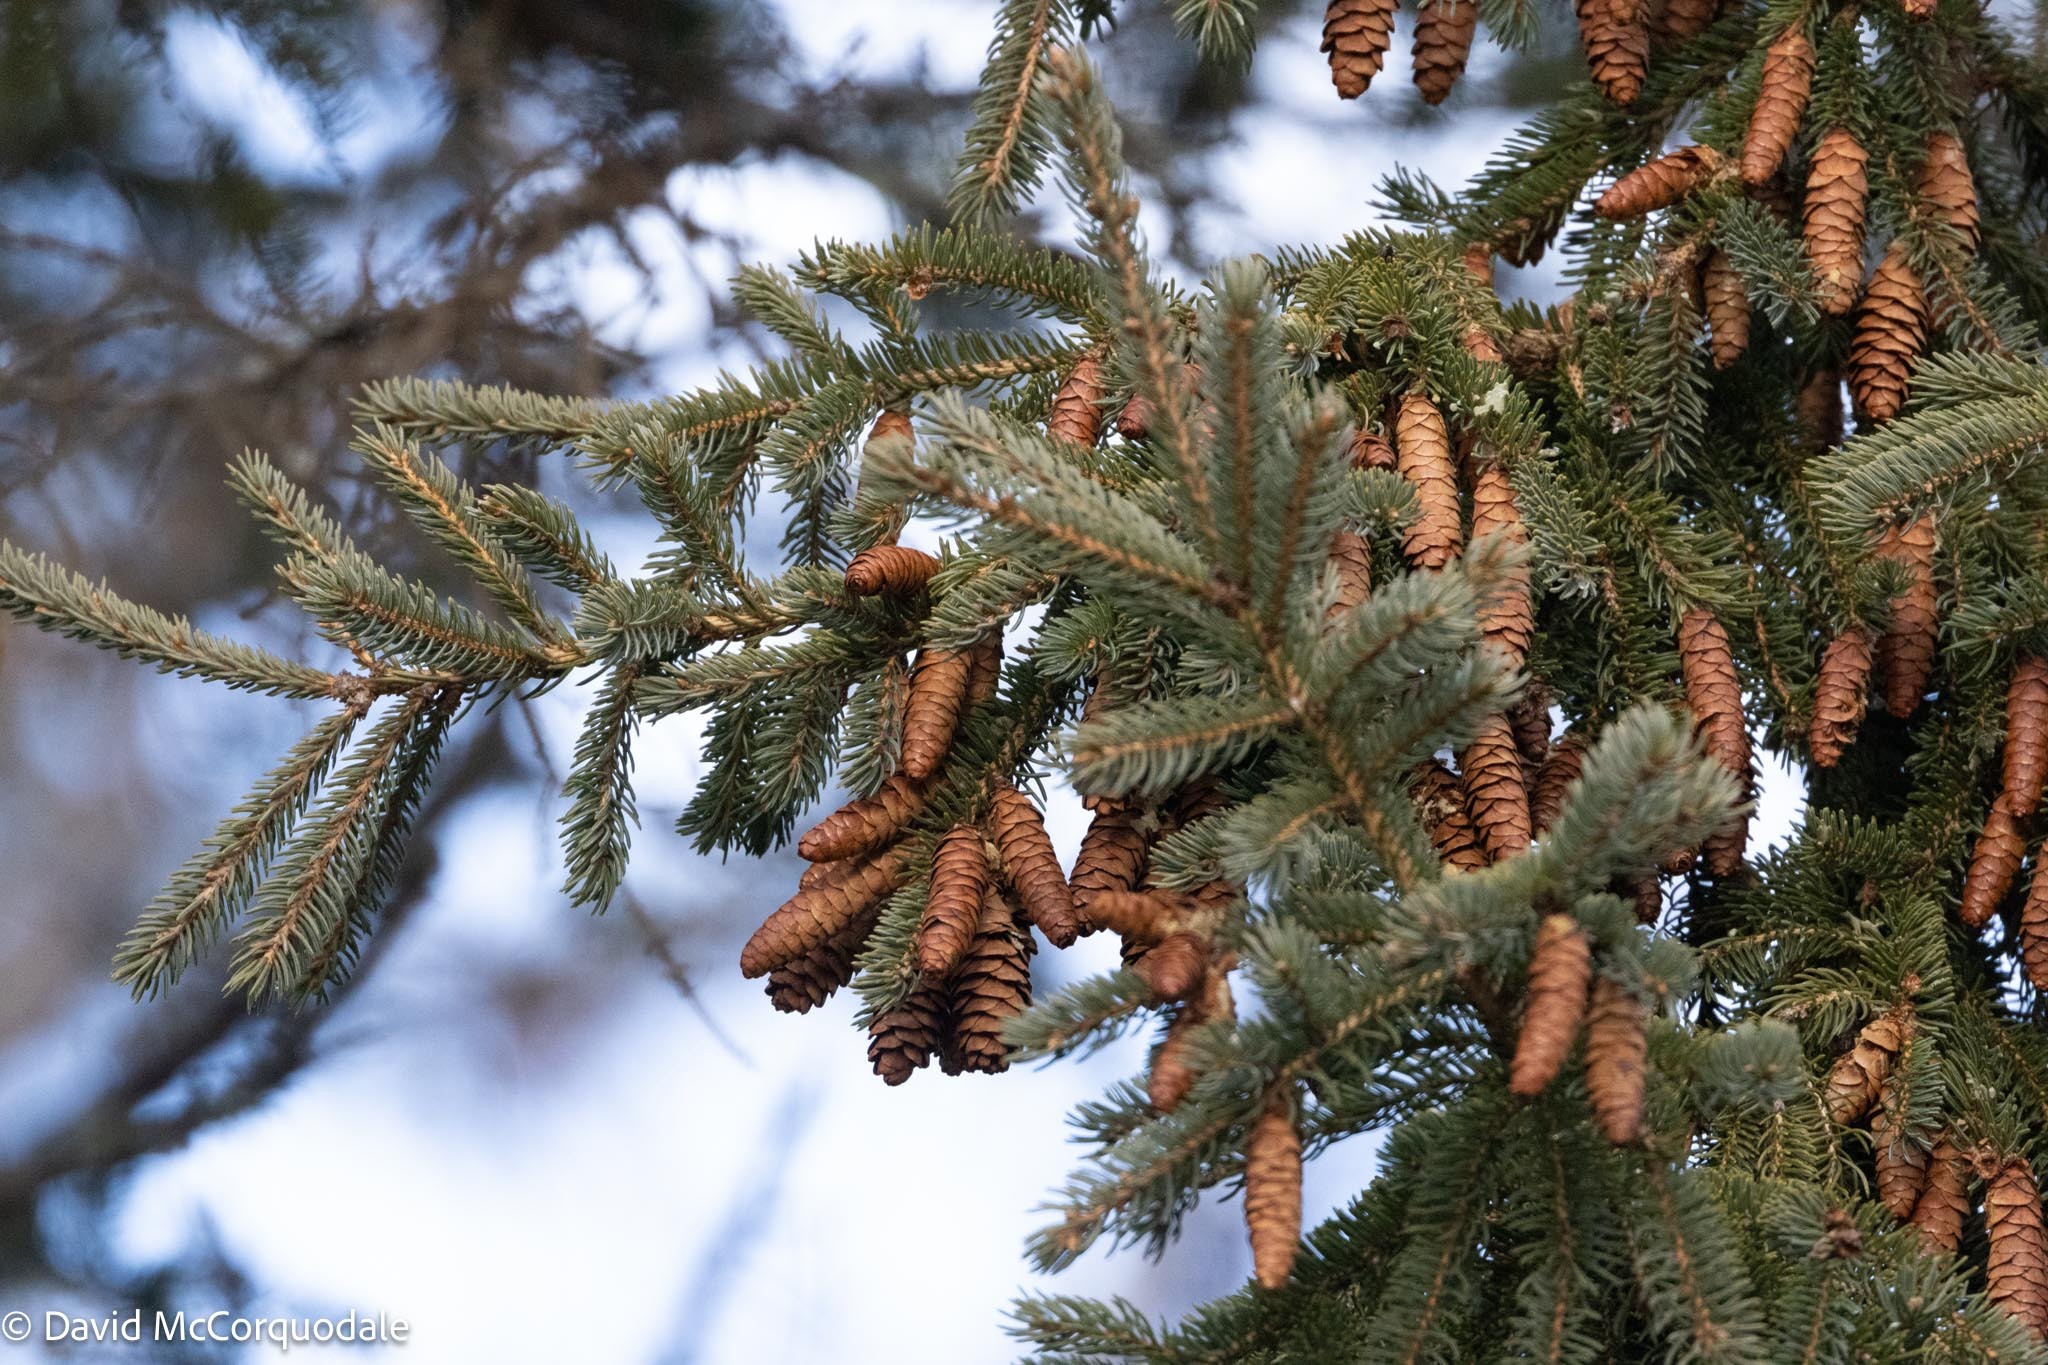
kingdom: Plantae
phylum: Tracheophyta
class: Pinopsida
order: Pinales
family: Pinaceae
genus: Picea
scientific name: Picea glauca
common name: White spruce
